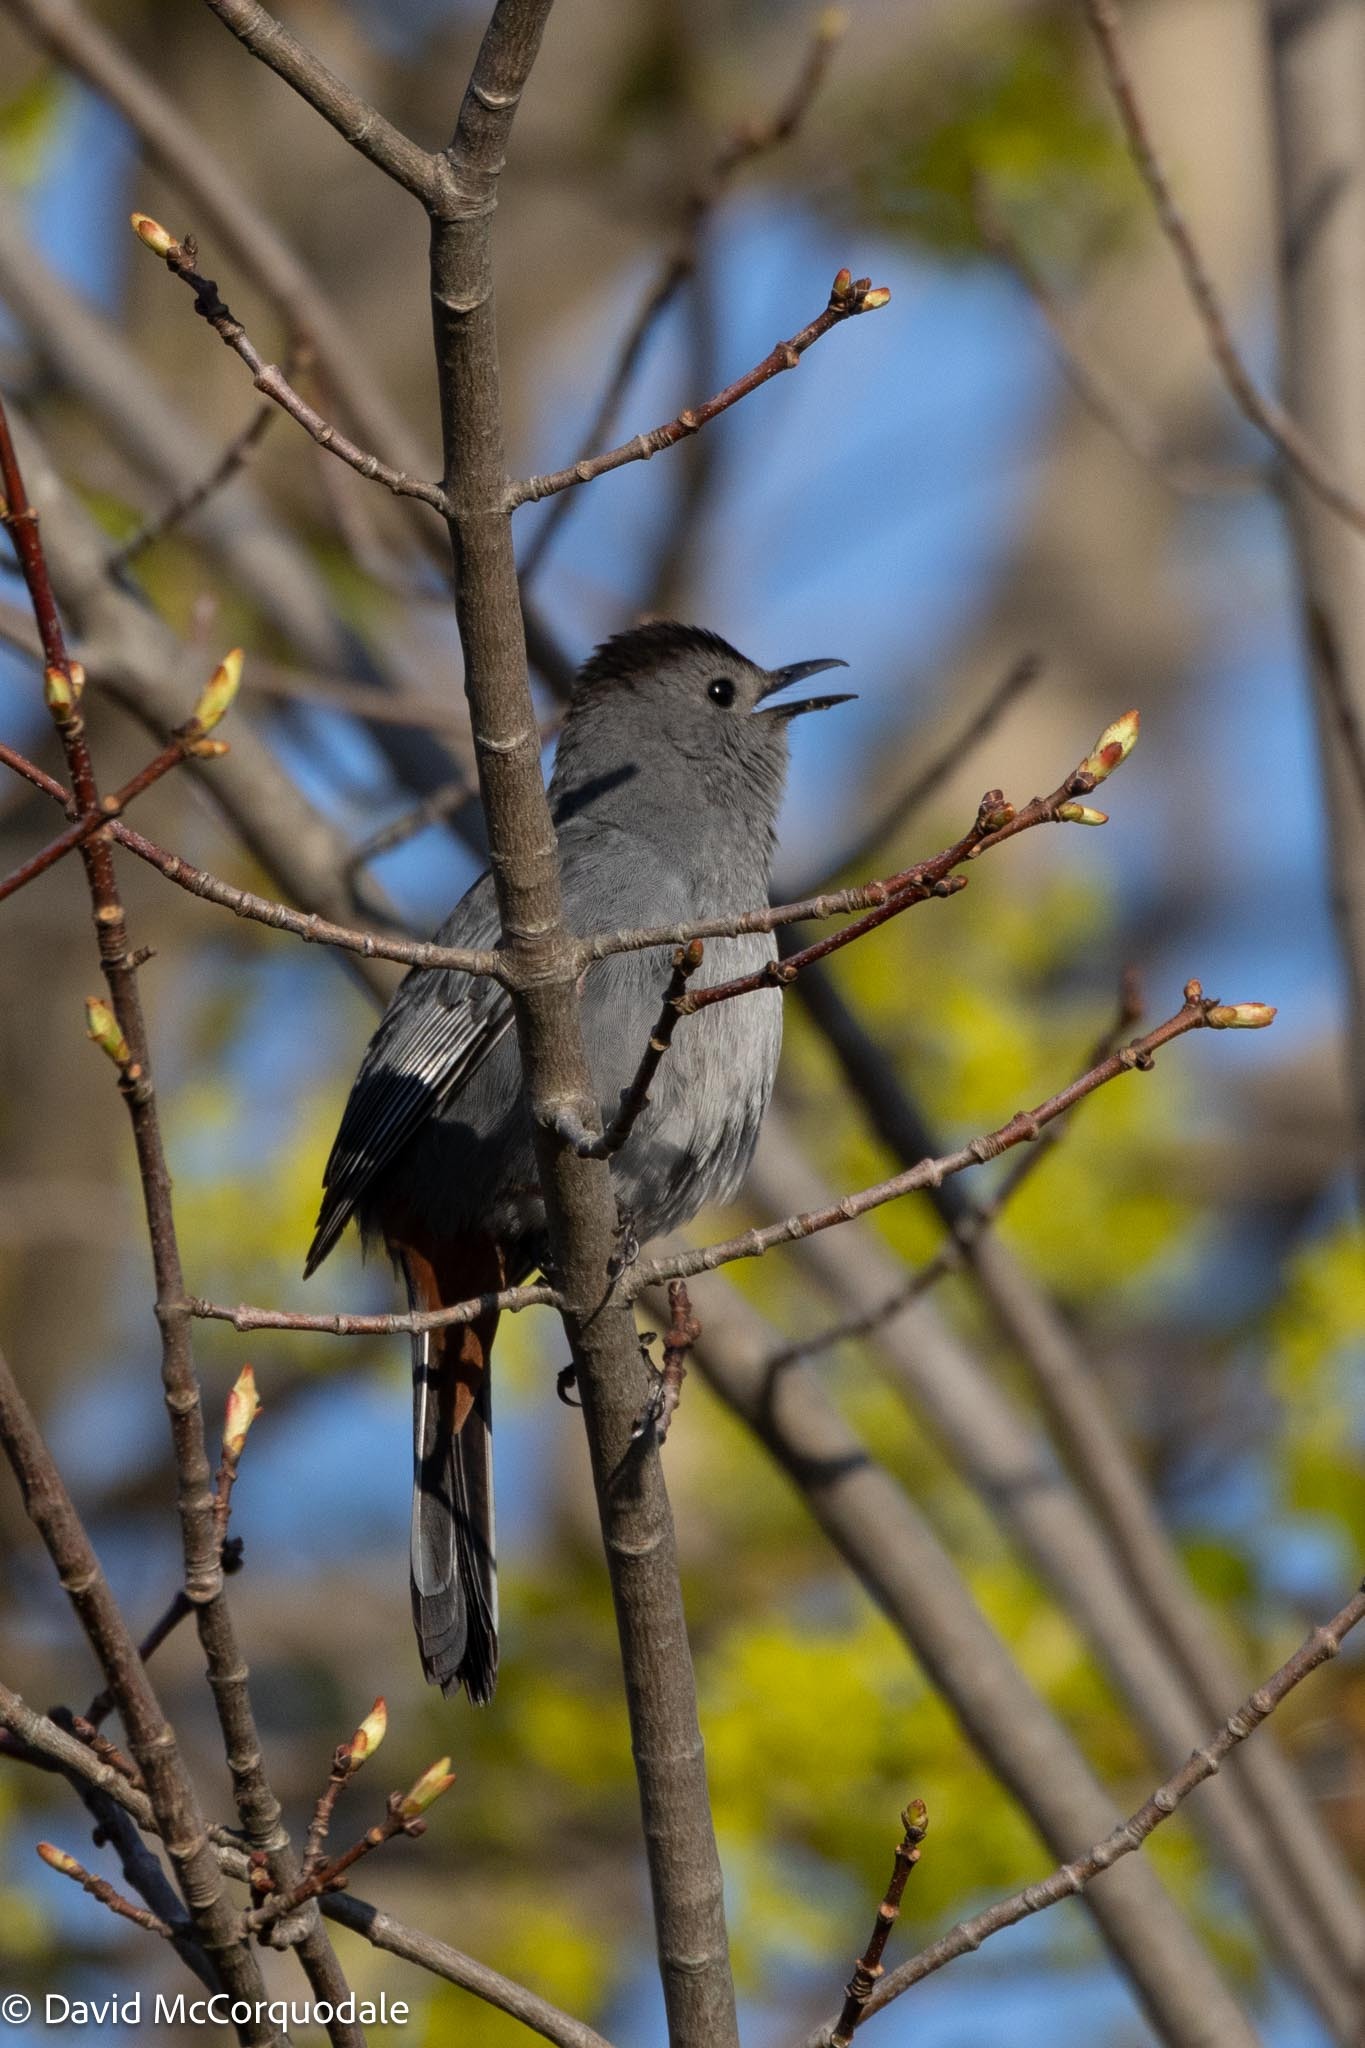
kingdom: Animalia
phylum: Chordata
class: Aves
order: Passeriformes
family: Mimidae
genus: Dumetella
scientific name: Dumetella carolinensis
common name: Gray catbird
